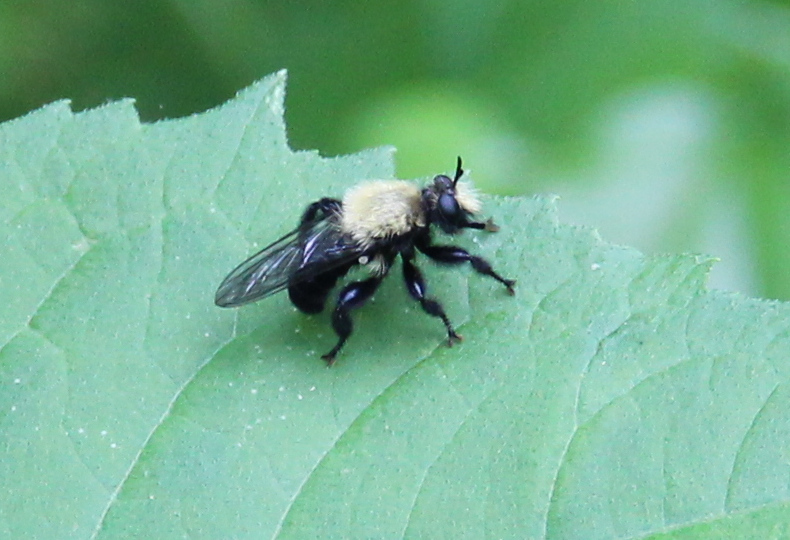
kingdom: Animalia
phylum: Arthropoda
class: Insecta
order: Diptera
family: Asilidae
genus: Laphria
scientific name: Laphria flavicollis
